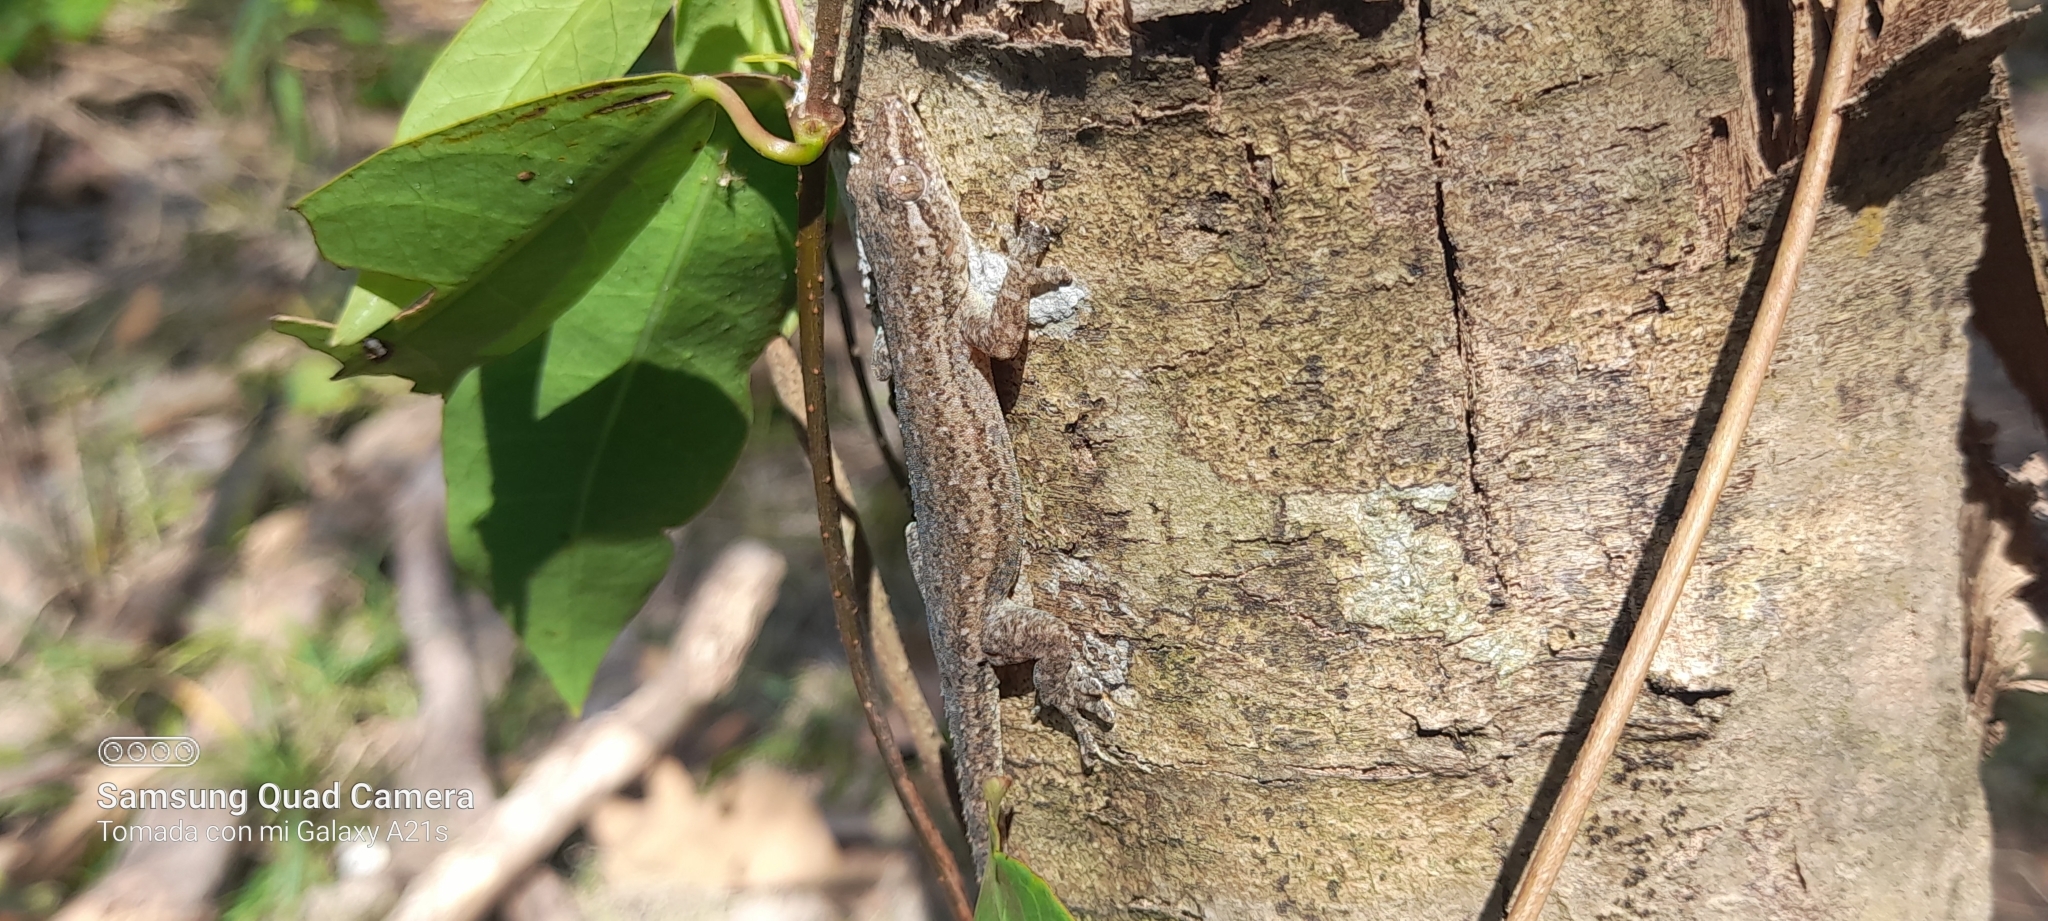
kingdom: Animalia
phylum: Chordata
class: Squamata
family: Gekkonidae
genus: Hemidactylus
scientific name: Hemidactylus frenatus
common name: Common house gecko
